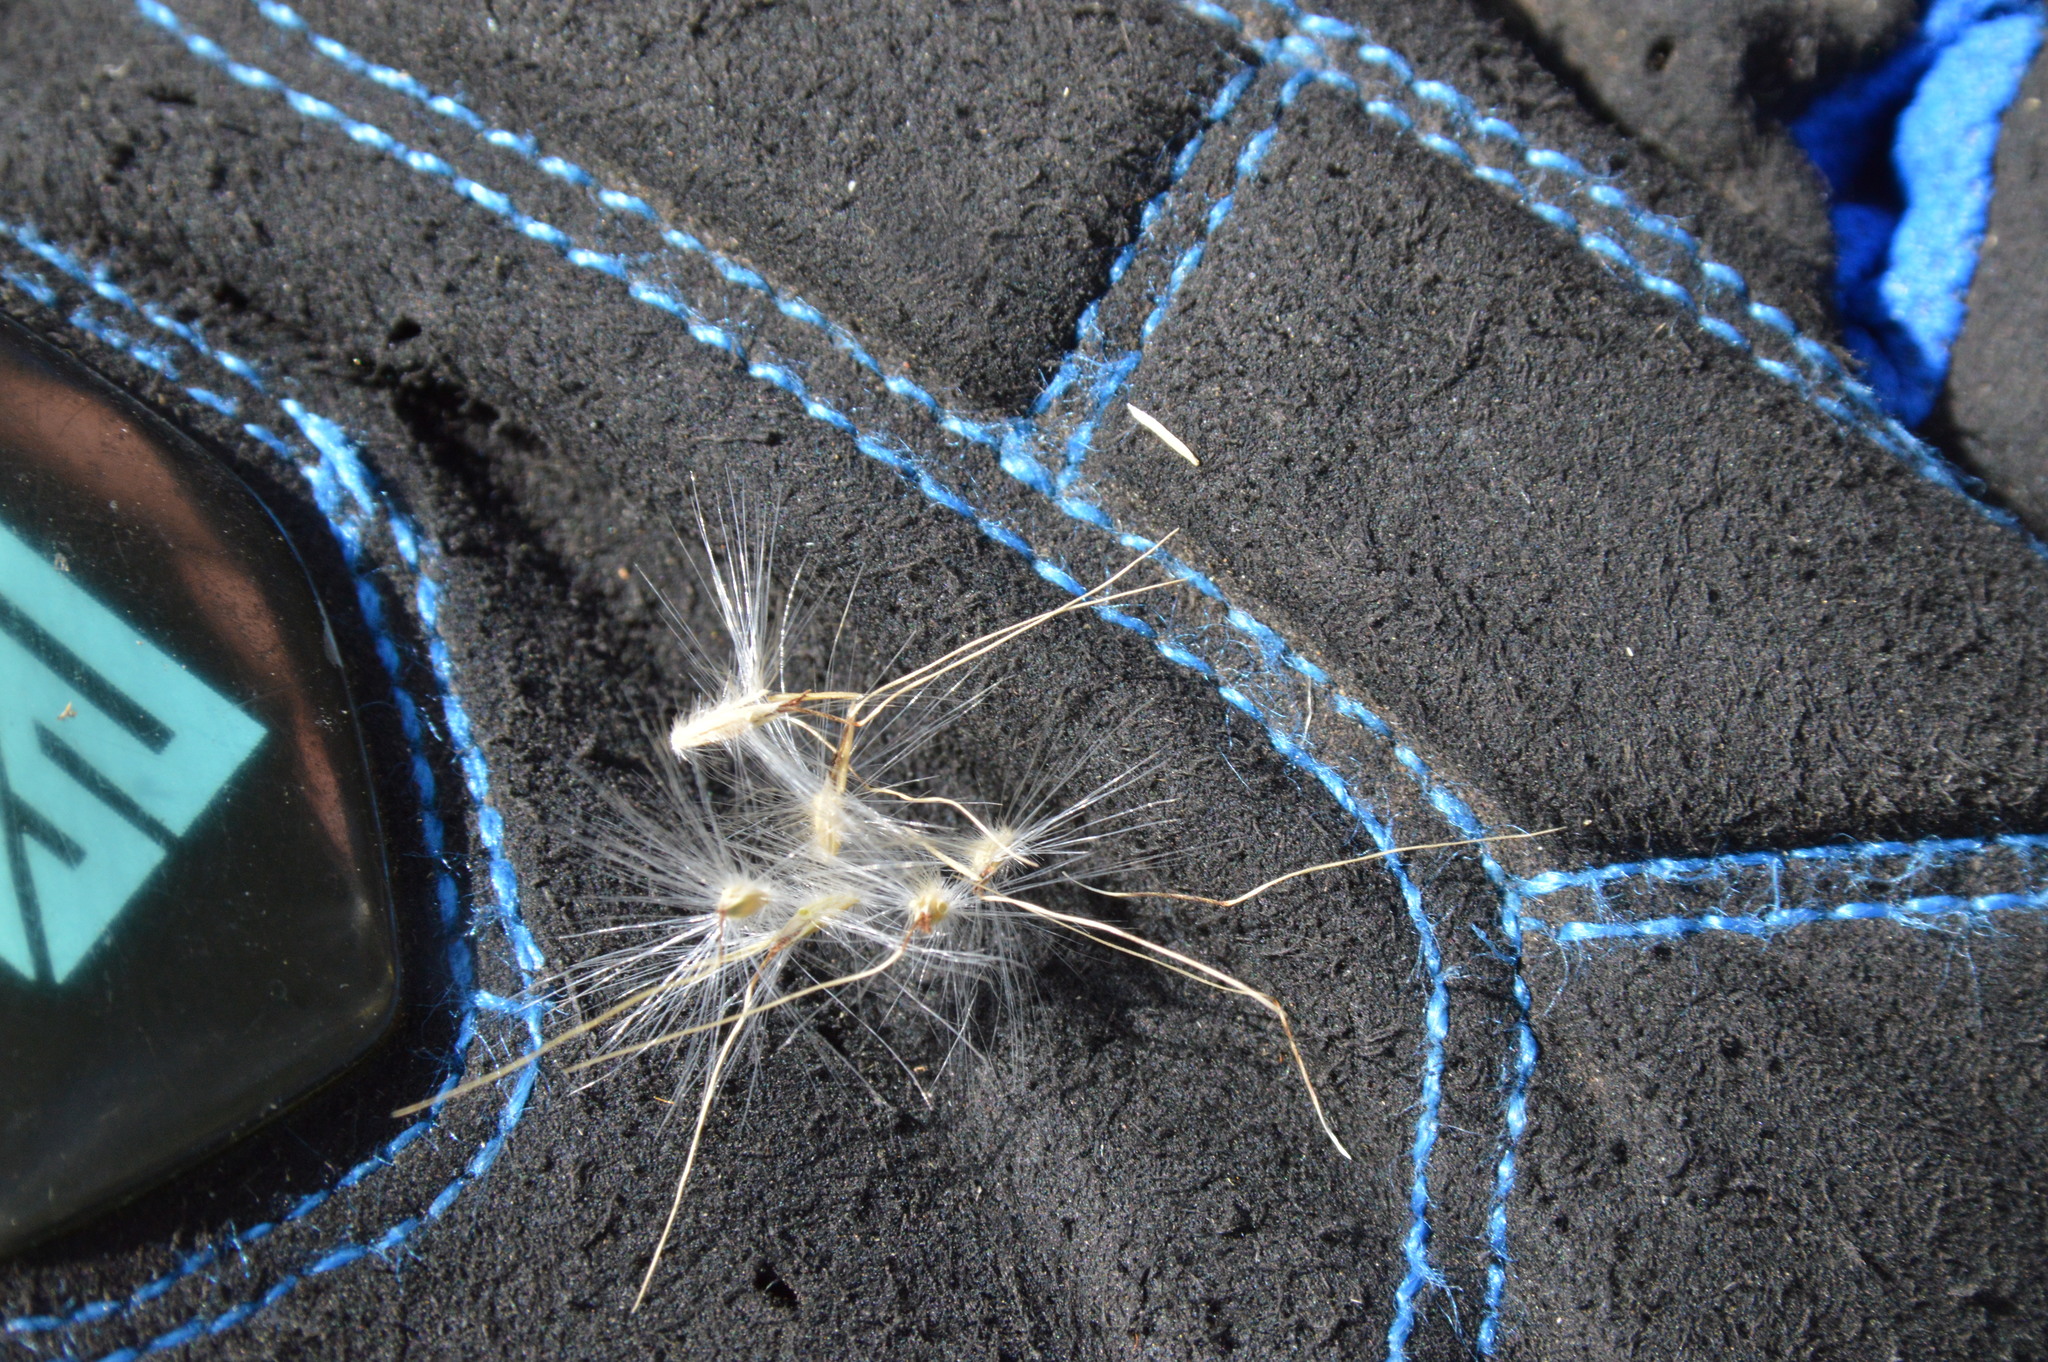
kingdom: Plantae
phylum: Tracheophyta
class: Liliopsida
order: Poales
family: Poaceae
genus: Bothriochloa
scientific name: Bothriochloa torreyana
